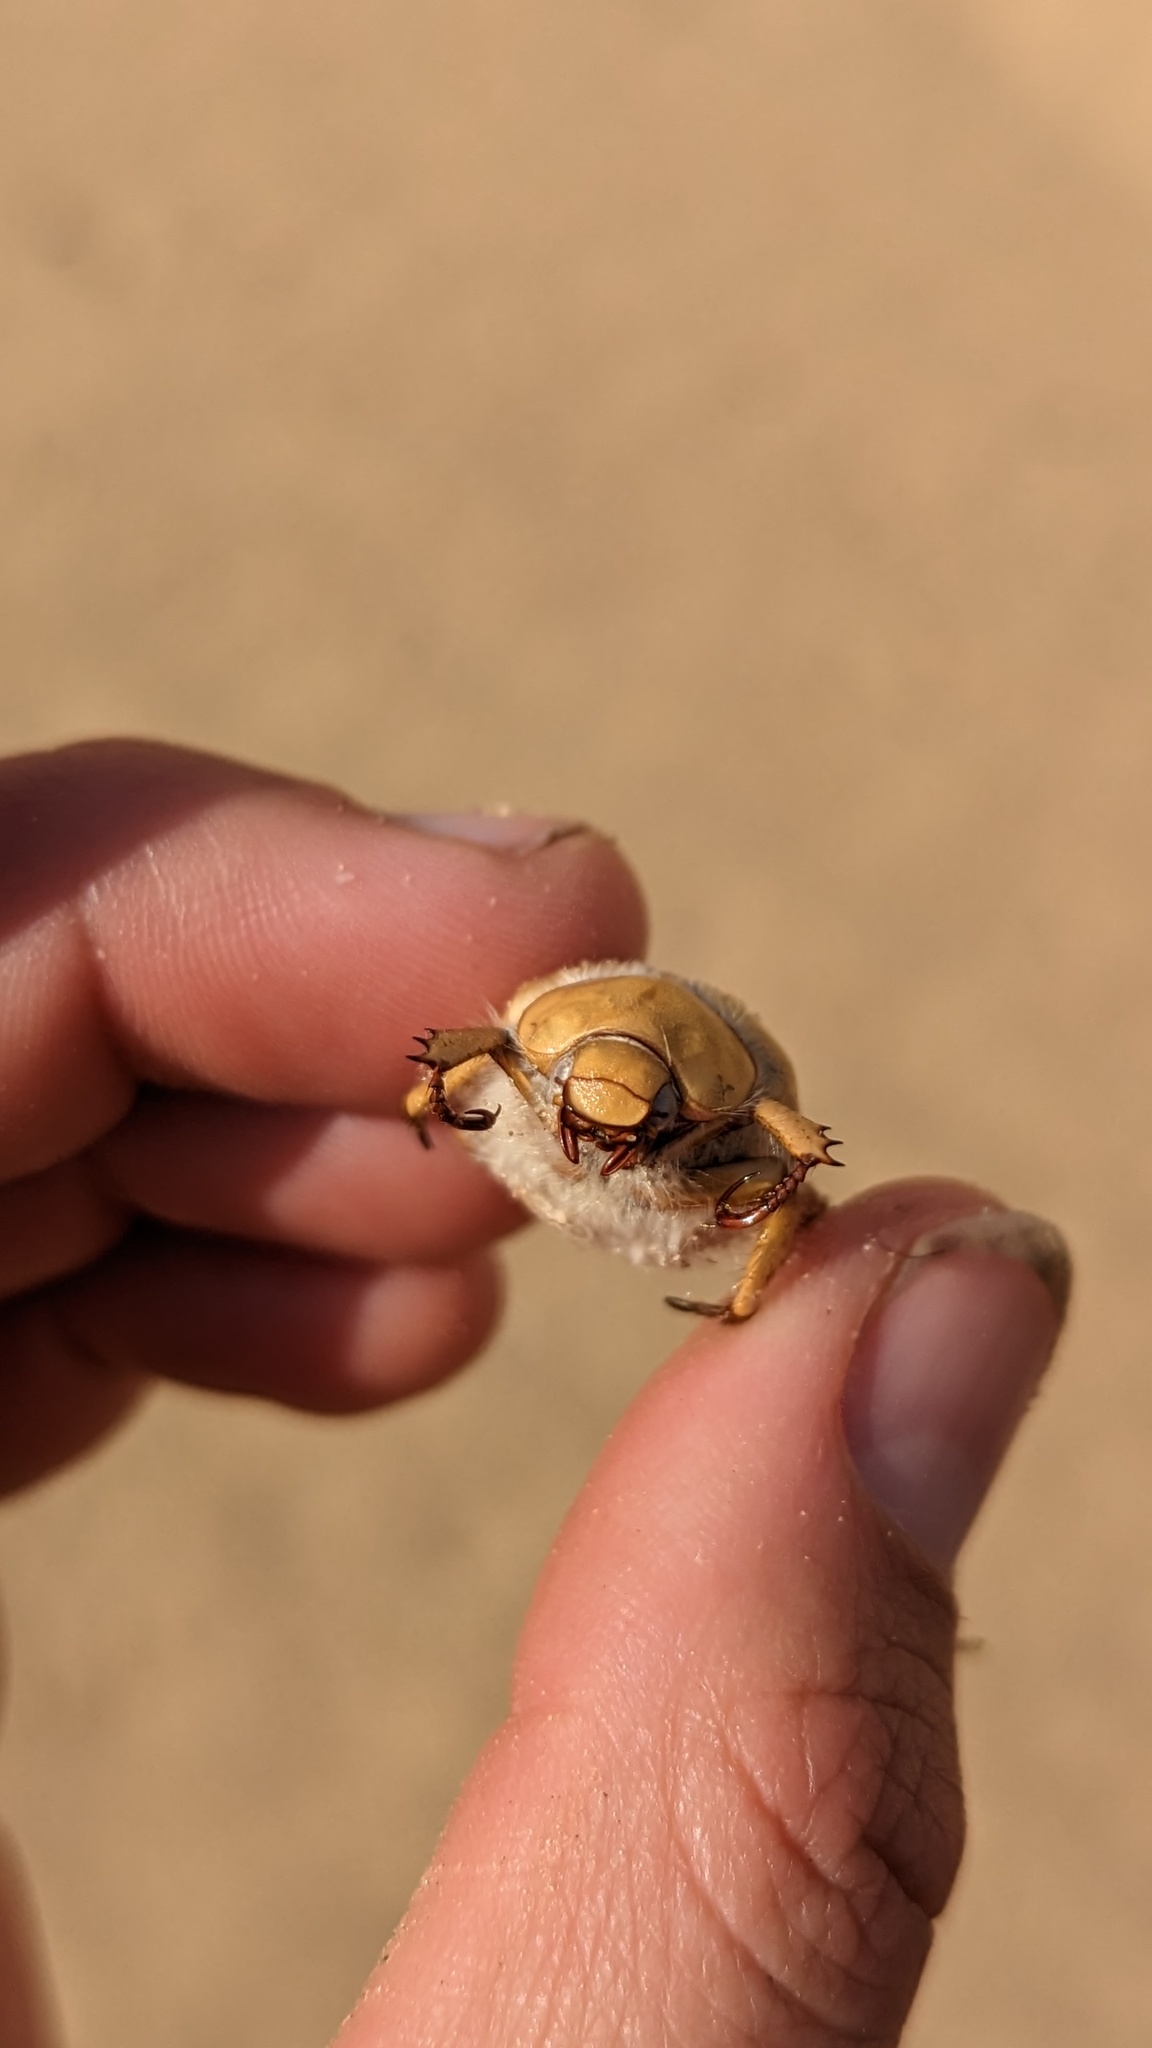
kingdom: Animalia
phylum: Arthropoda
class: Insecta
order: Coleoptera
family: Scarabaeidae
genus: Pseudocotalpa
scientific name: Pseudocotalpa sonorica
